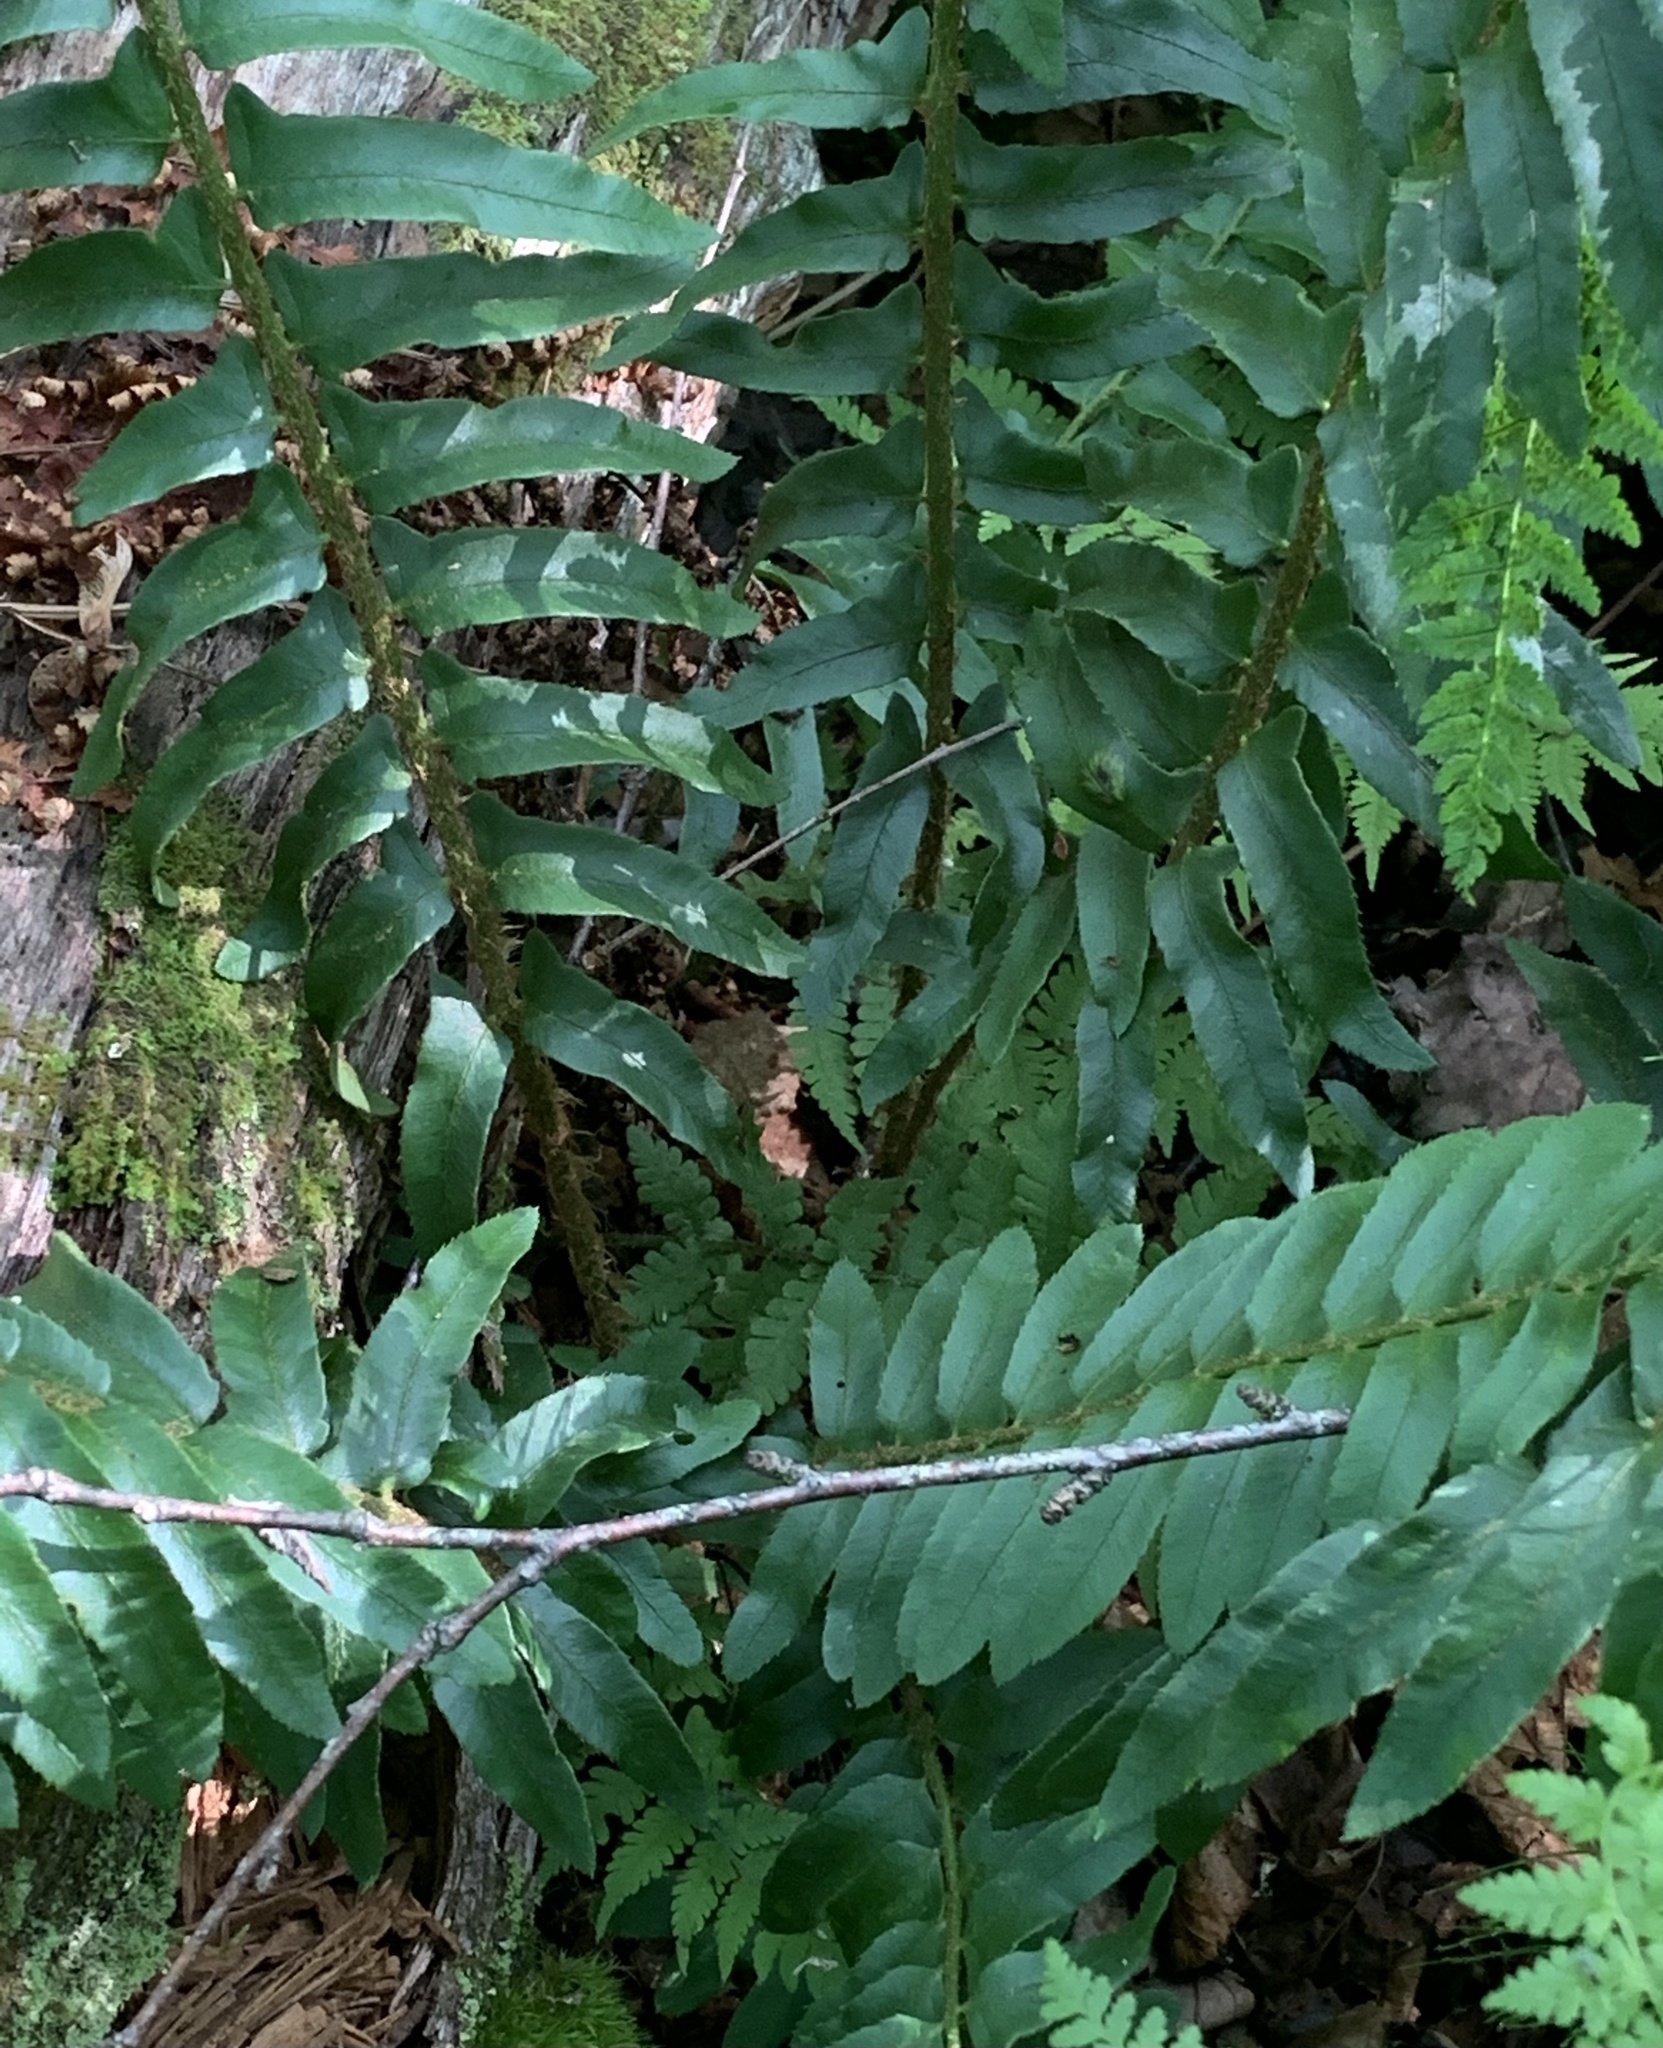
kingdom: Plantae
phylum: Tracheophyta
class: Polypodiopsida
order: Polypodiales
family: Dryopteridaceae
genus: Polystichum
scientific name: Polystichum acrostichoides
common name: Christmas fern
